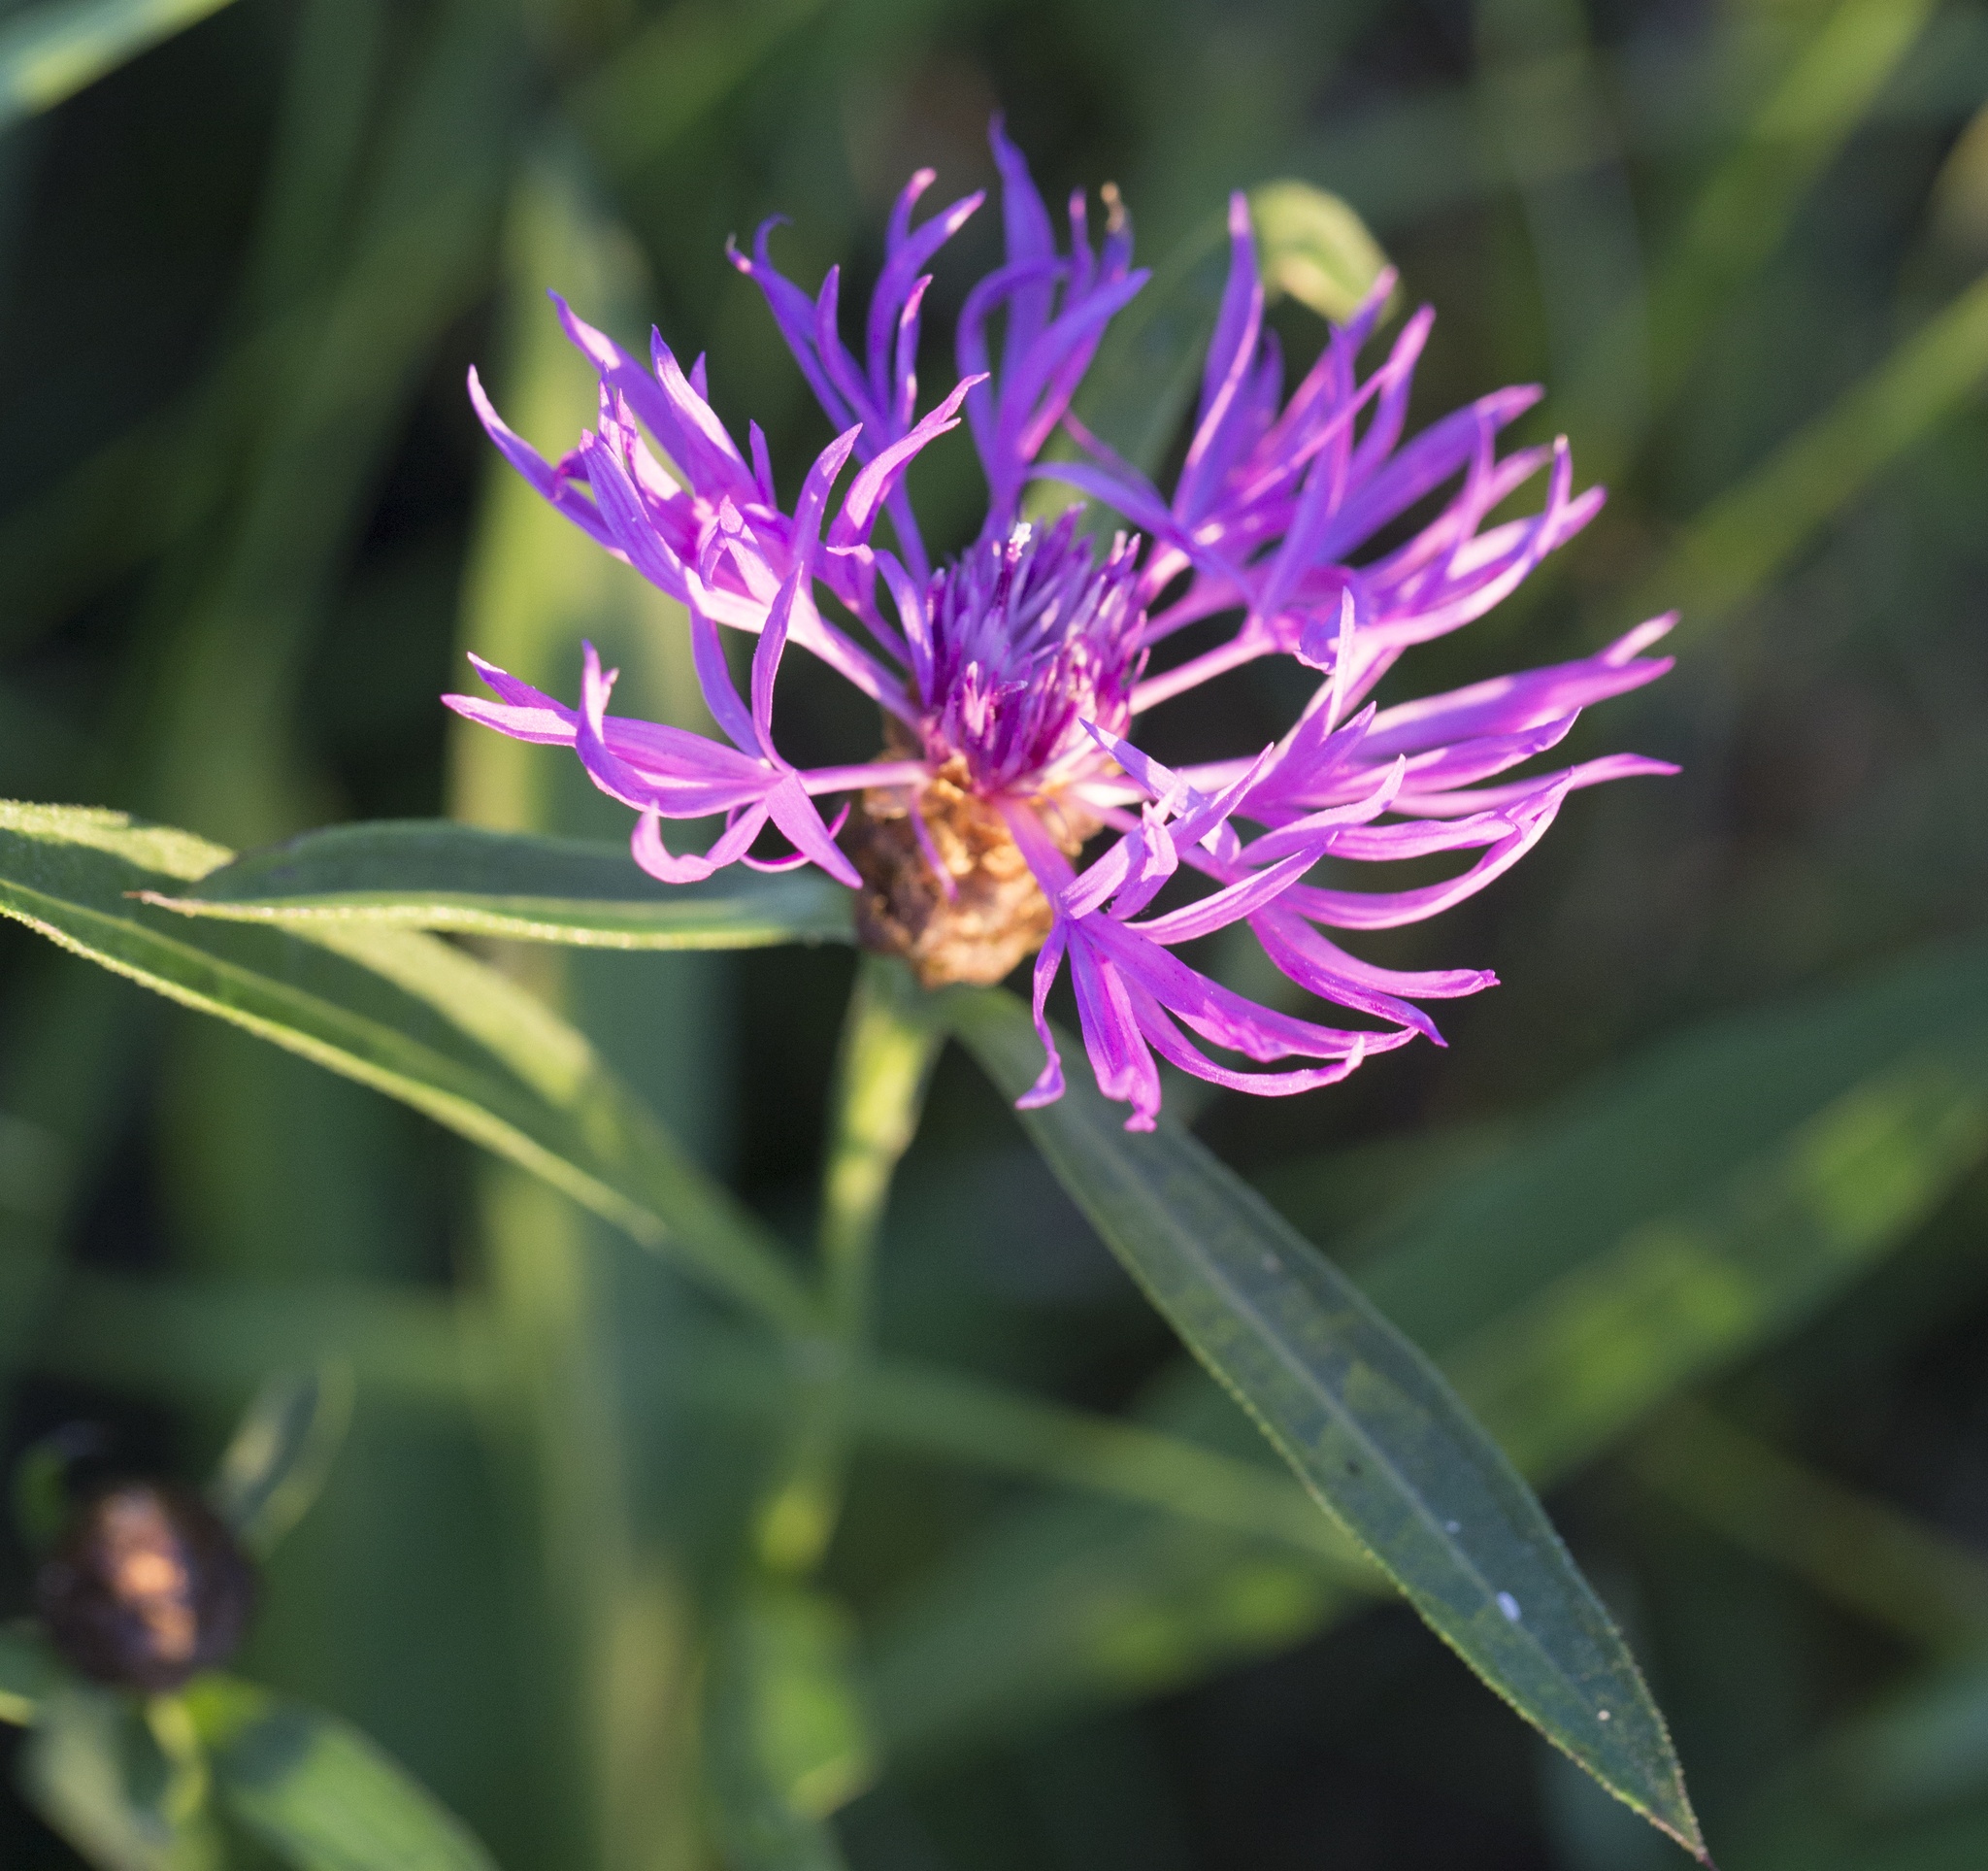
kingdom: Plantae
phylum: Tracheophyta
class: Magnoliopsida
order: Asterales
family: Asteraceae
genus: Centaurea
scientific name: Centaurea jacea
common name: Brown knapweed
